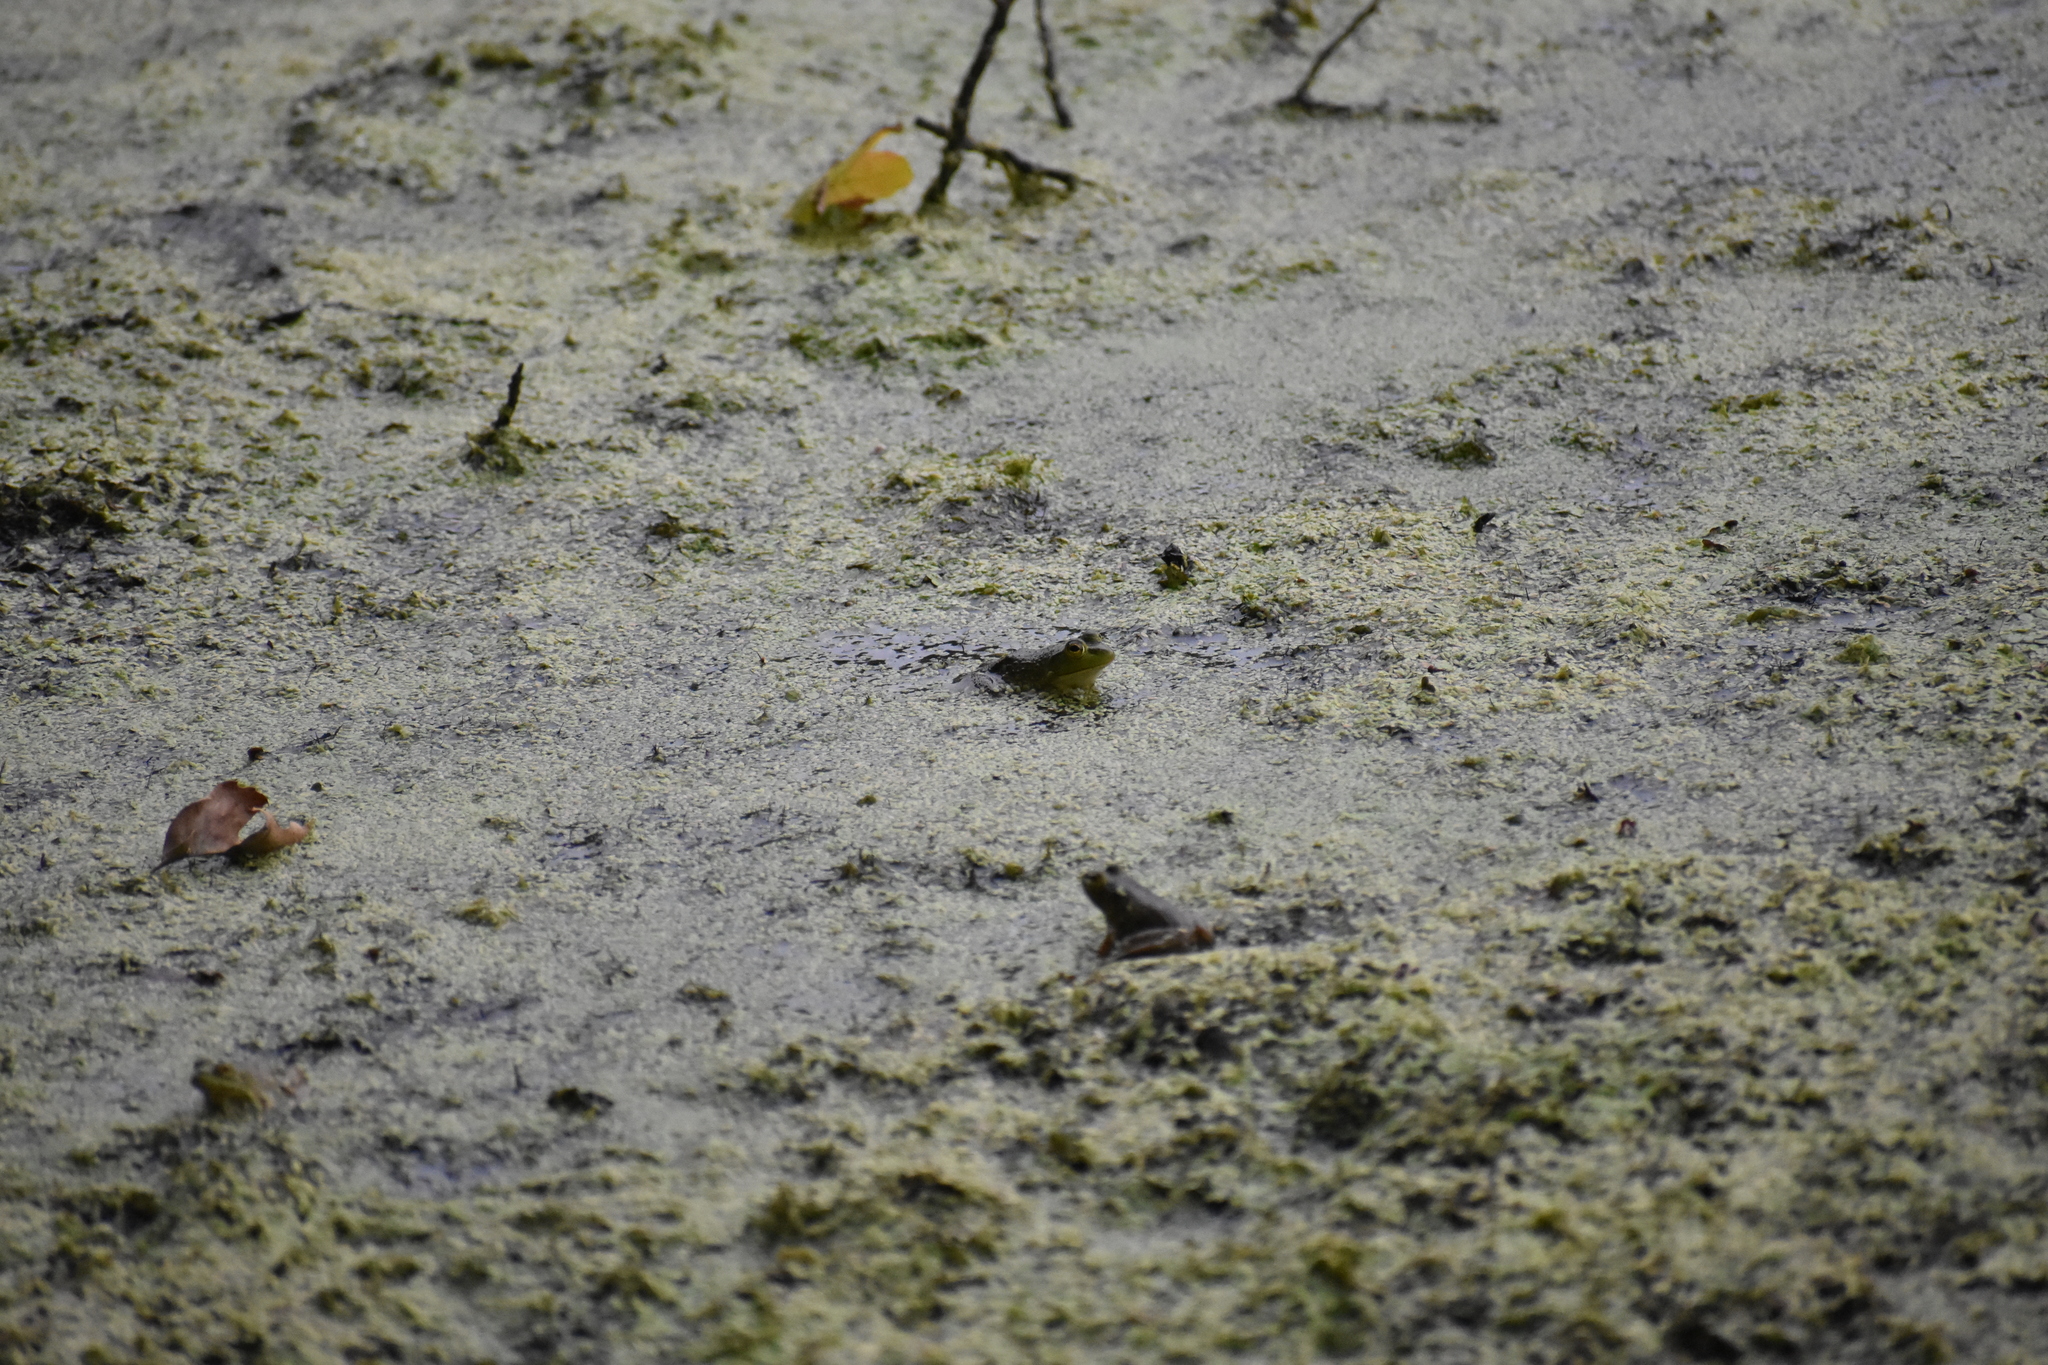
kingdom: Animalia
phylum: Chordata
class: Amphibia
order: Anura
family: Ranidae
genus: Lithobates
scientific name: Lithobates catesbeianus
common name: American bullfrog
